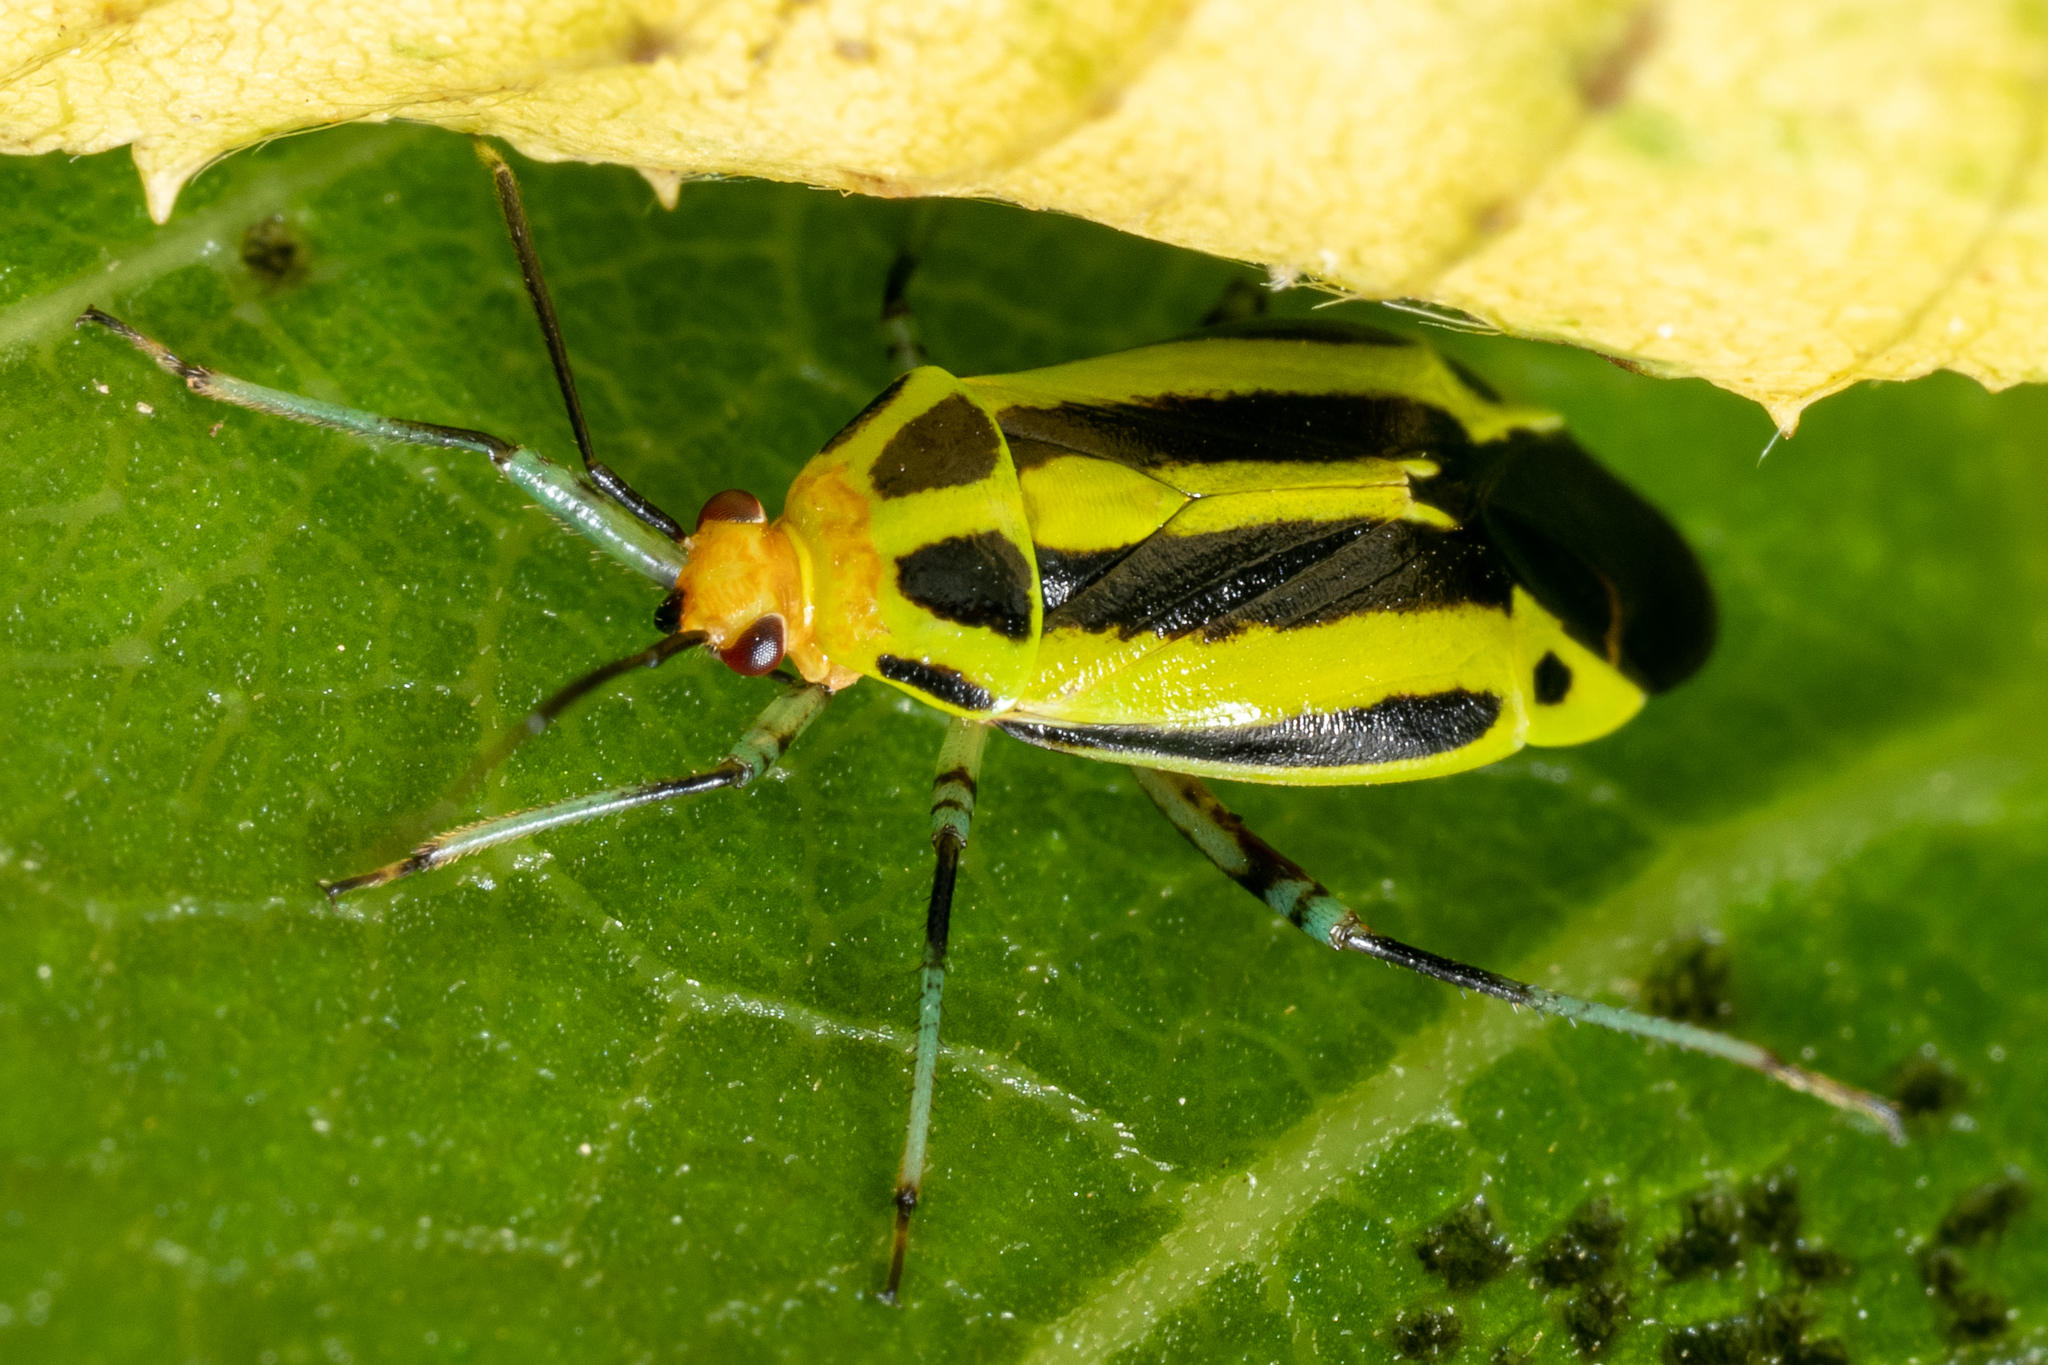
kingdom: Animalia
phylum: Arthropoda
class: Insecta
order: Hemiptera
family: Miridae
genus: Poecilocapsus
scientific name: Poecilocapsus lineatus
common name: Four-lined plant bug
